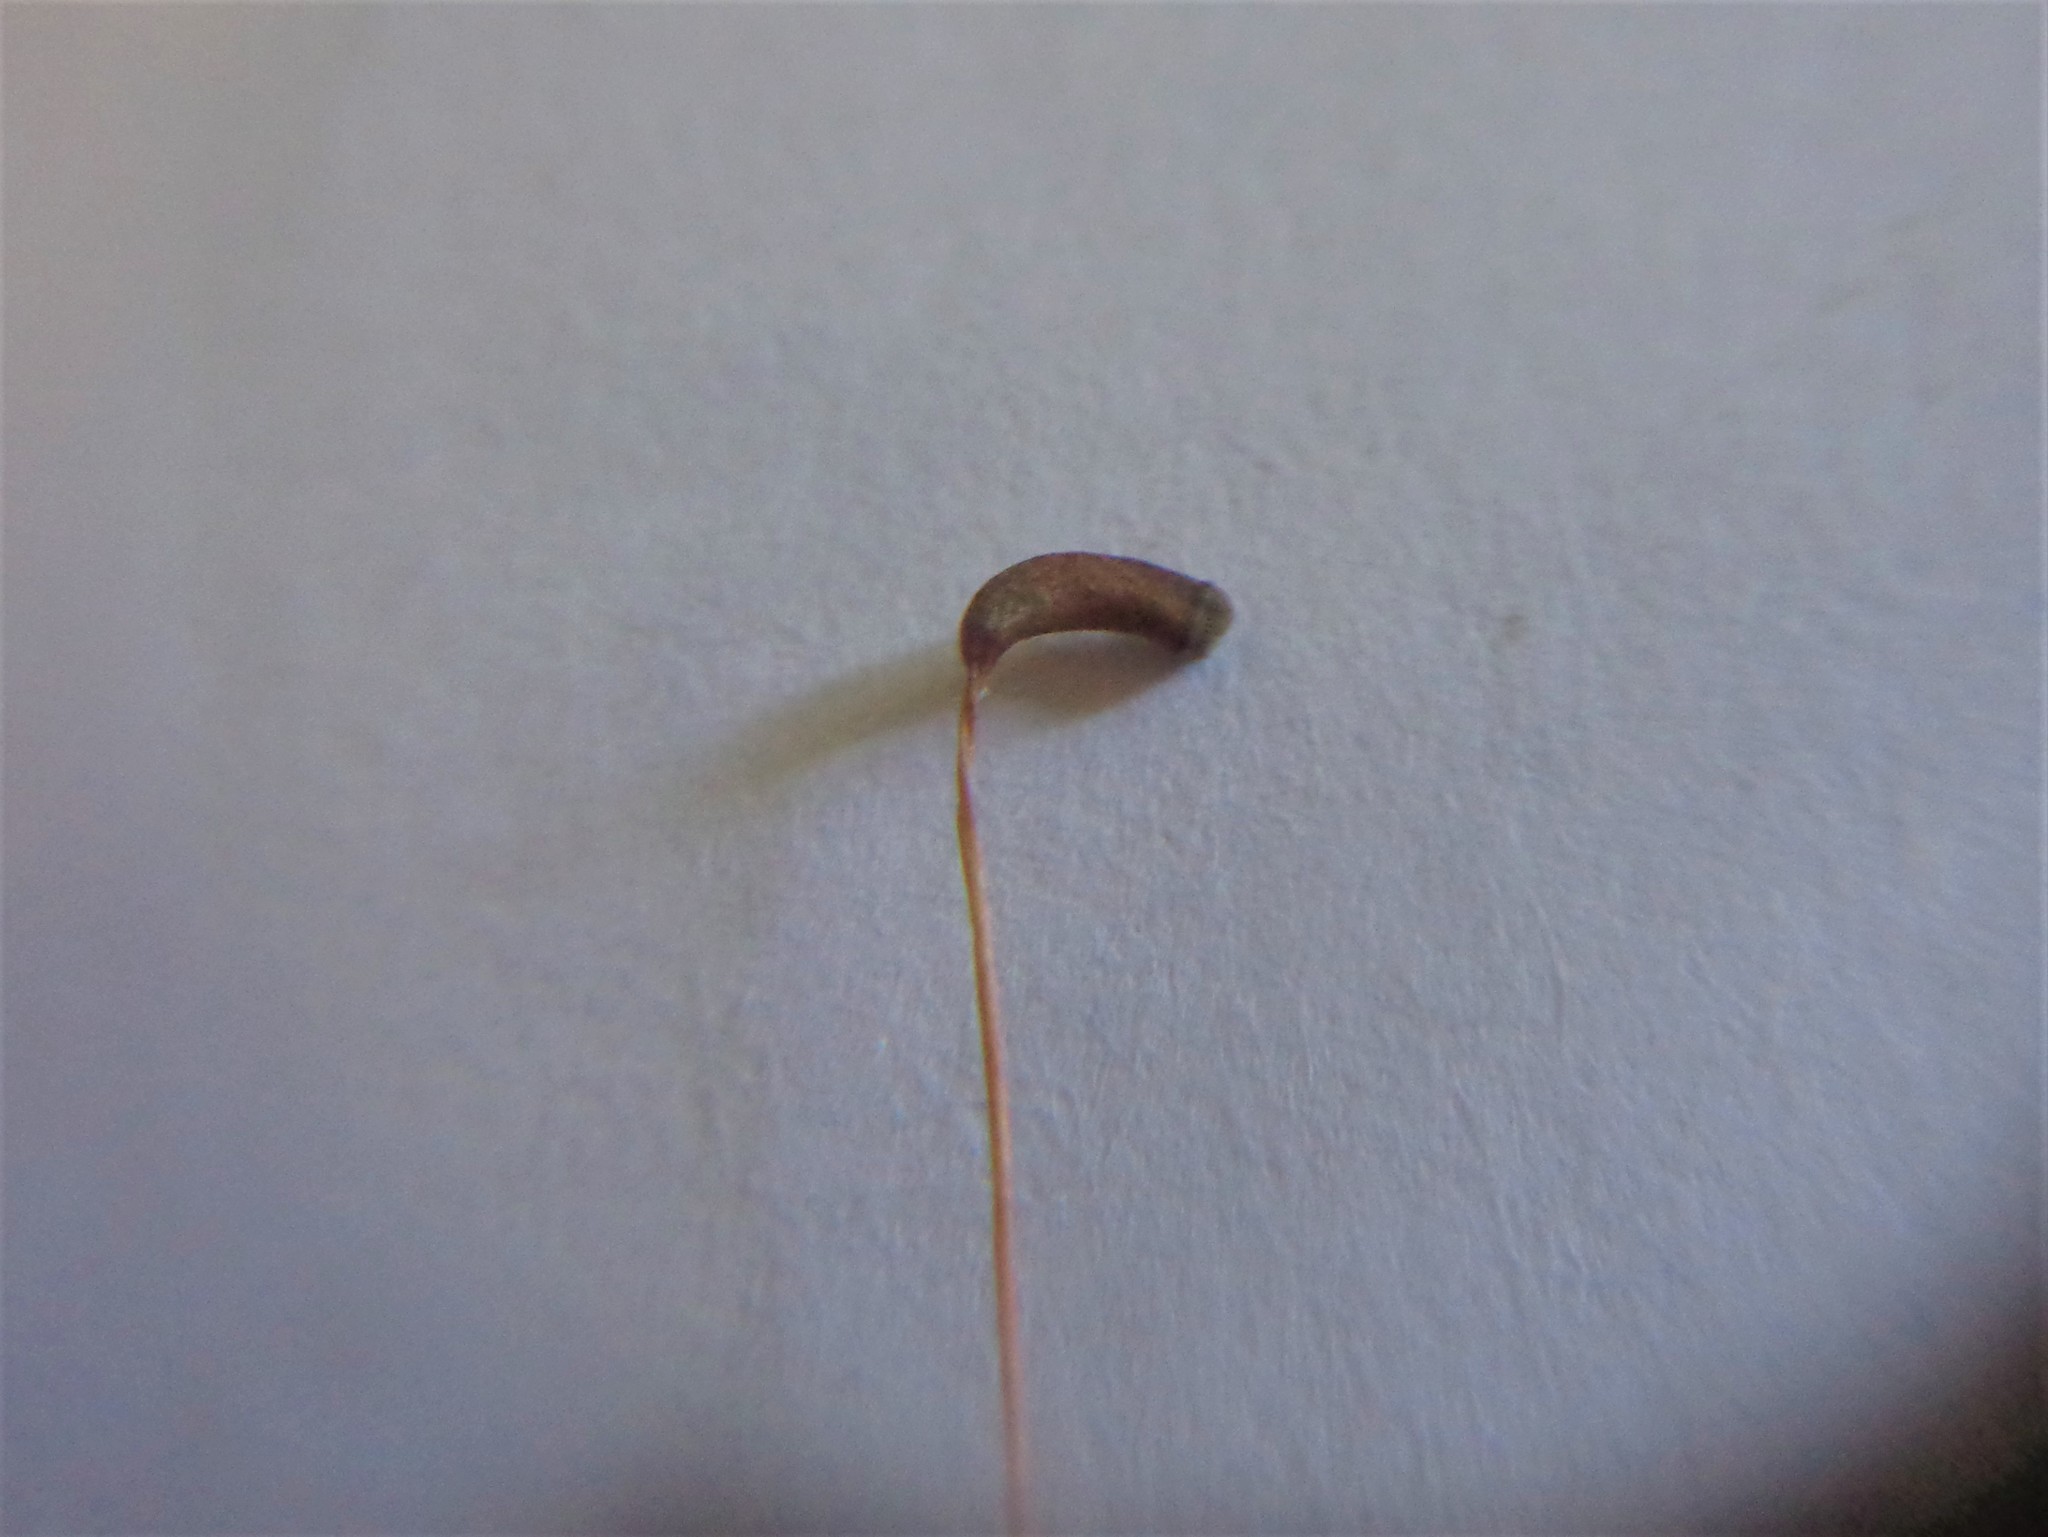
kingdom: Plantae
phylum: Bryophyta
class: Polytrichopsida
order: Polytrichales
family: Polytrichaceae
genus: Atrichum
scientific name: Atrichum undulatum
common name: Common smoothcap
